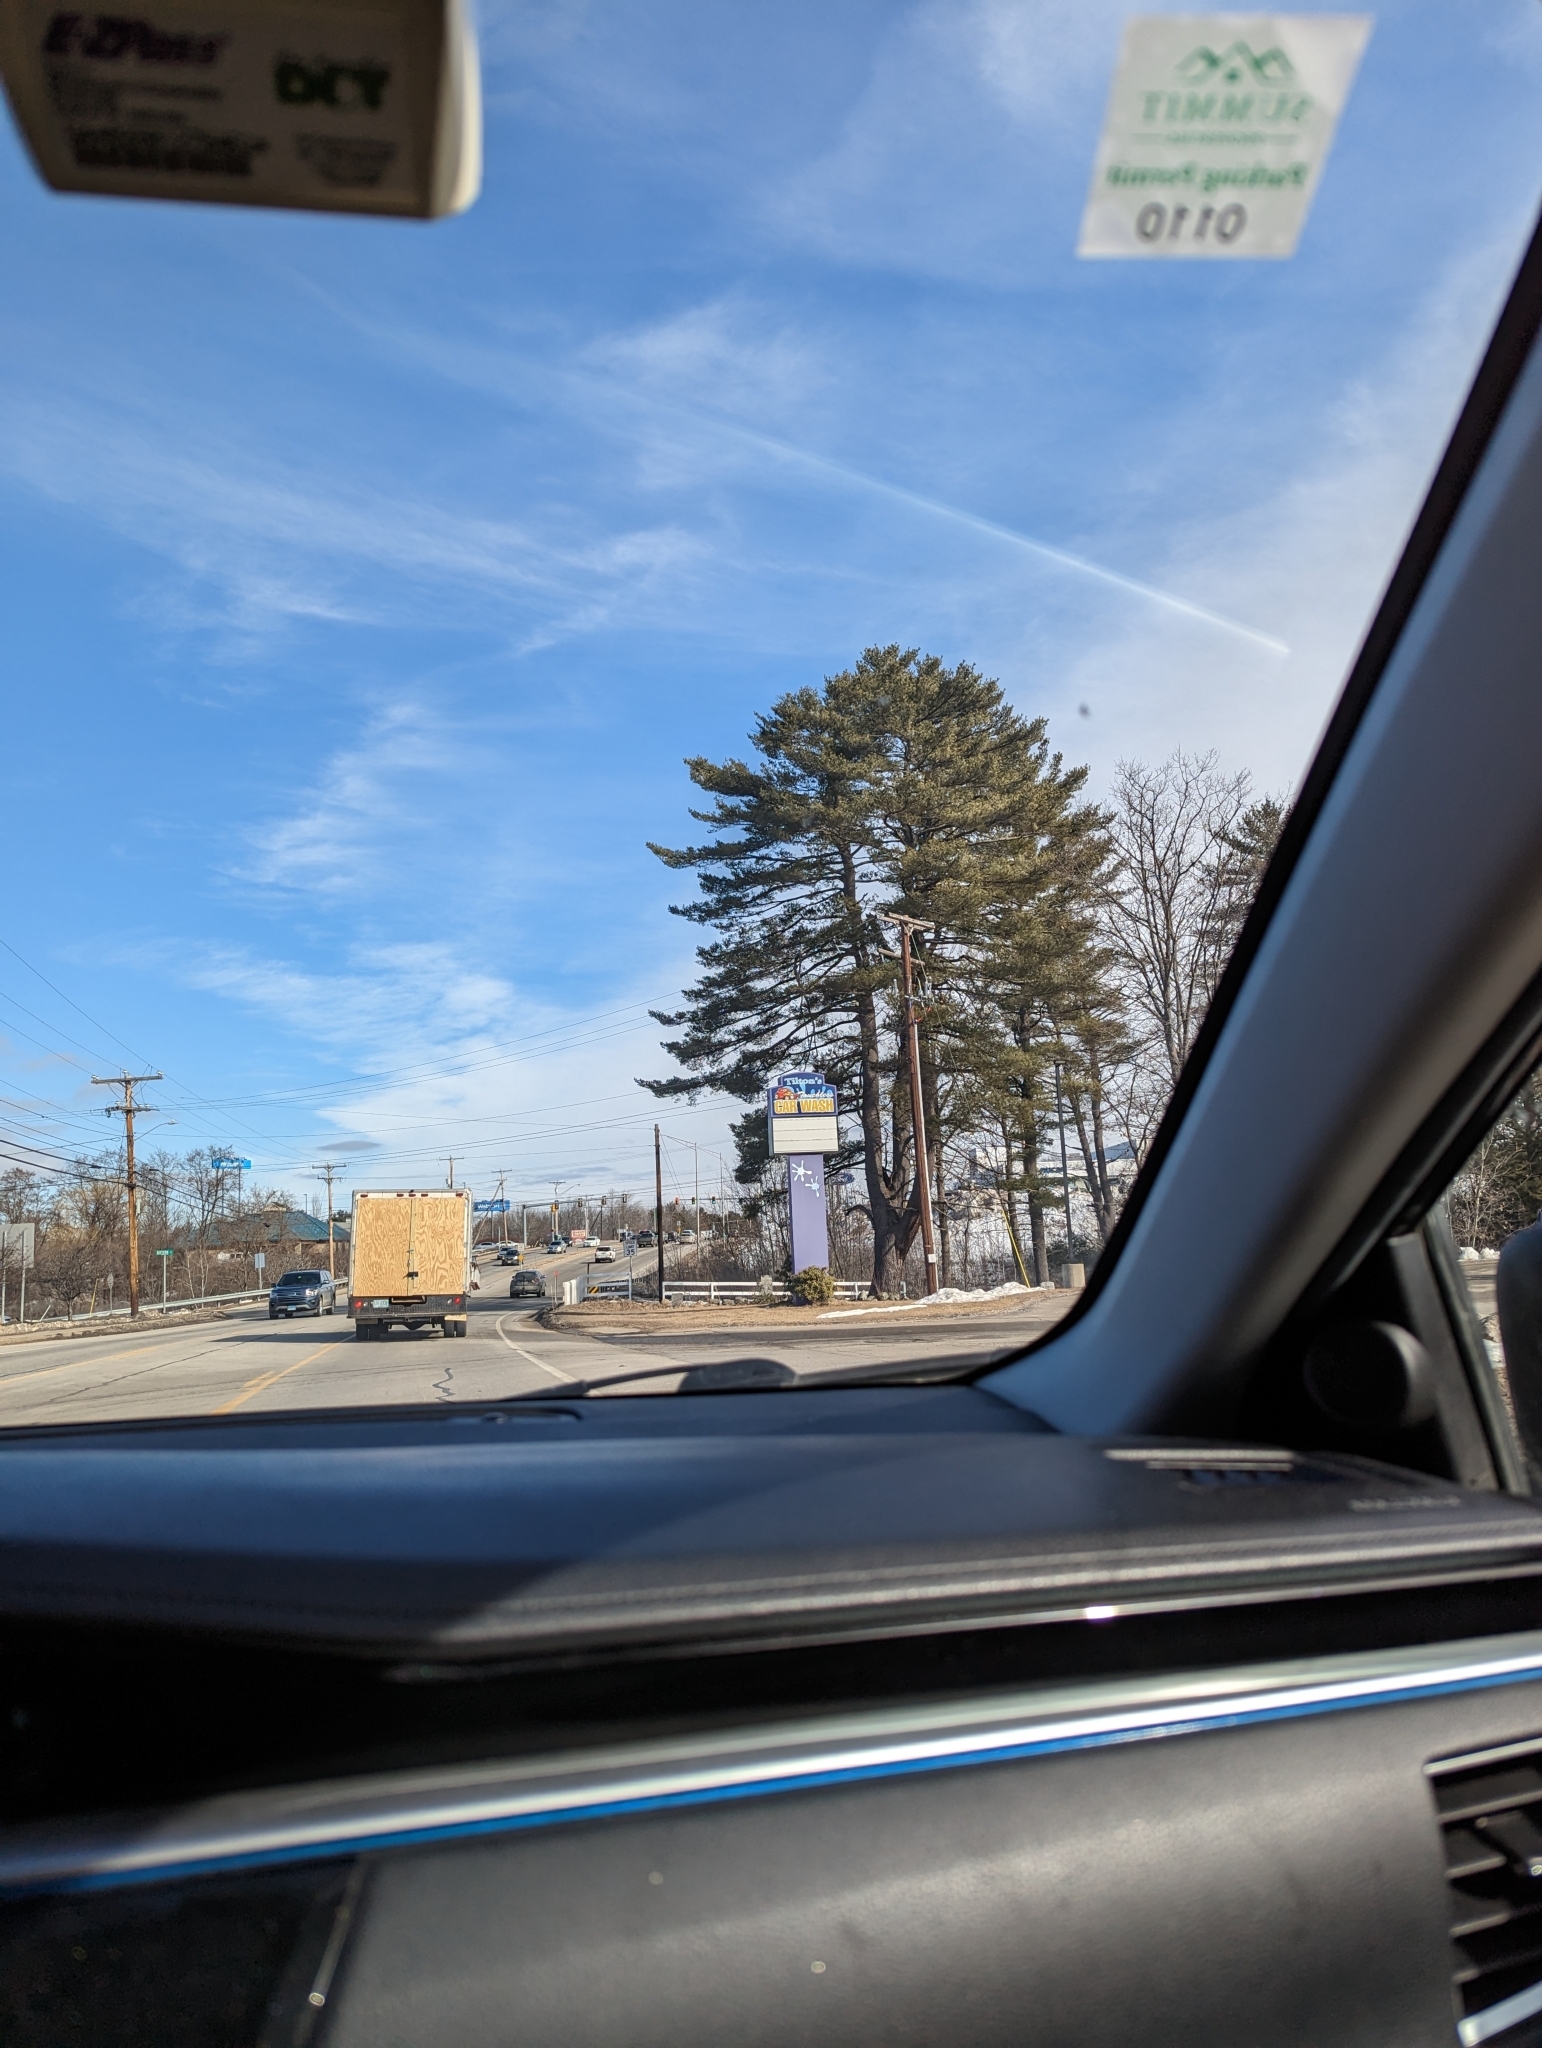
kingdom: Plantae
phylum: Tracheophyta
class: Pinopsida
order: Pinales
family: Pinaceae
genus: Pinus
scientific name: Pinus strobus
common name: Weymouth pine
